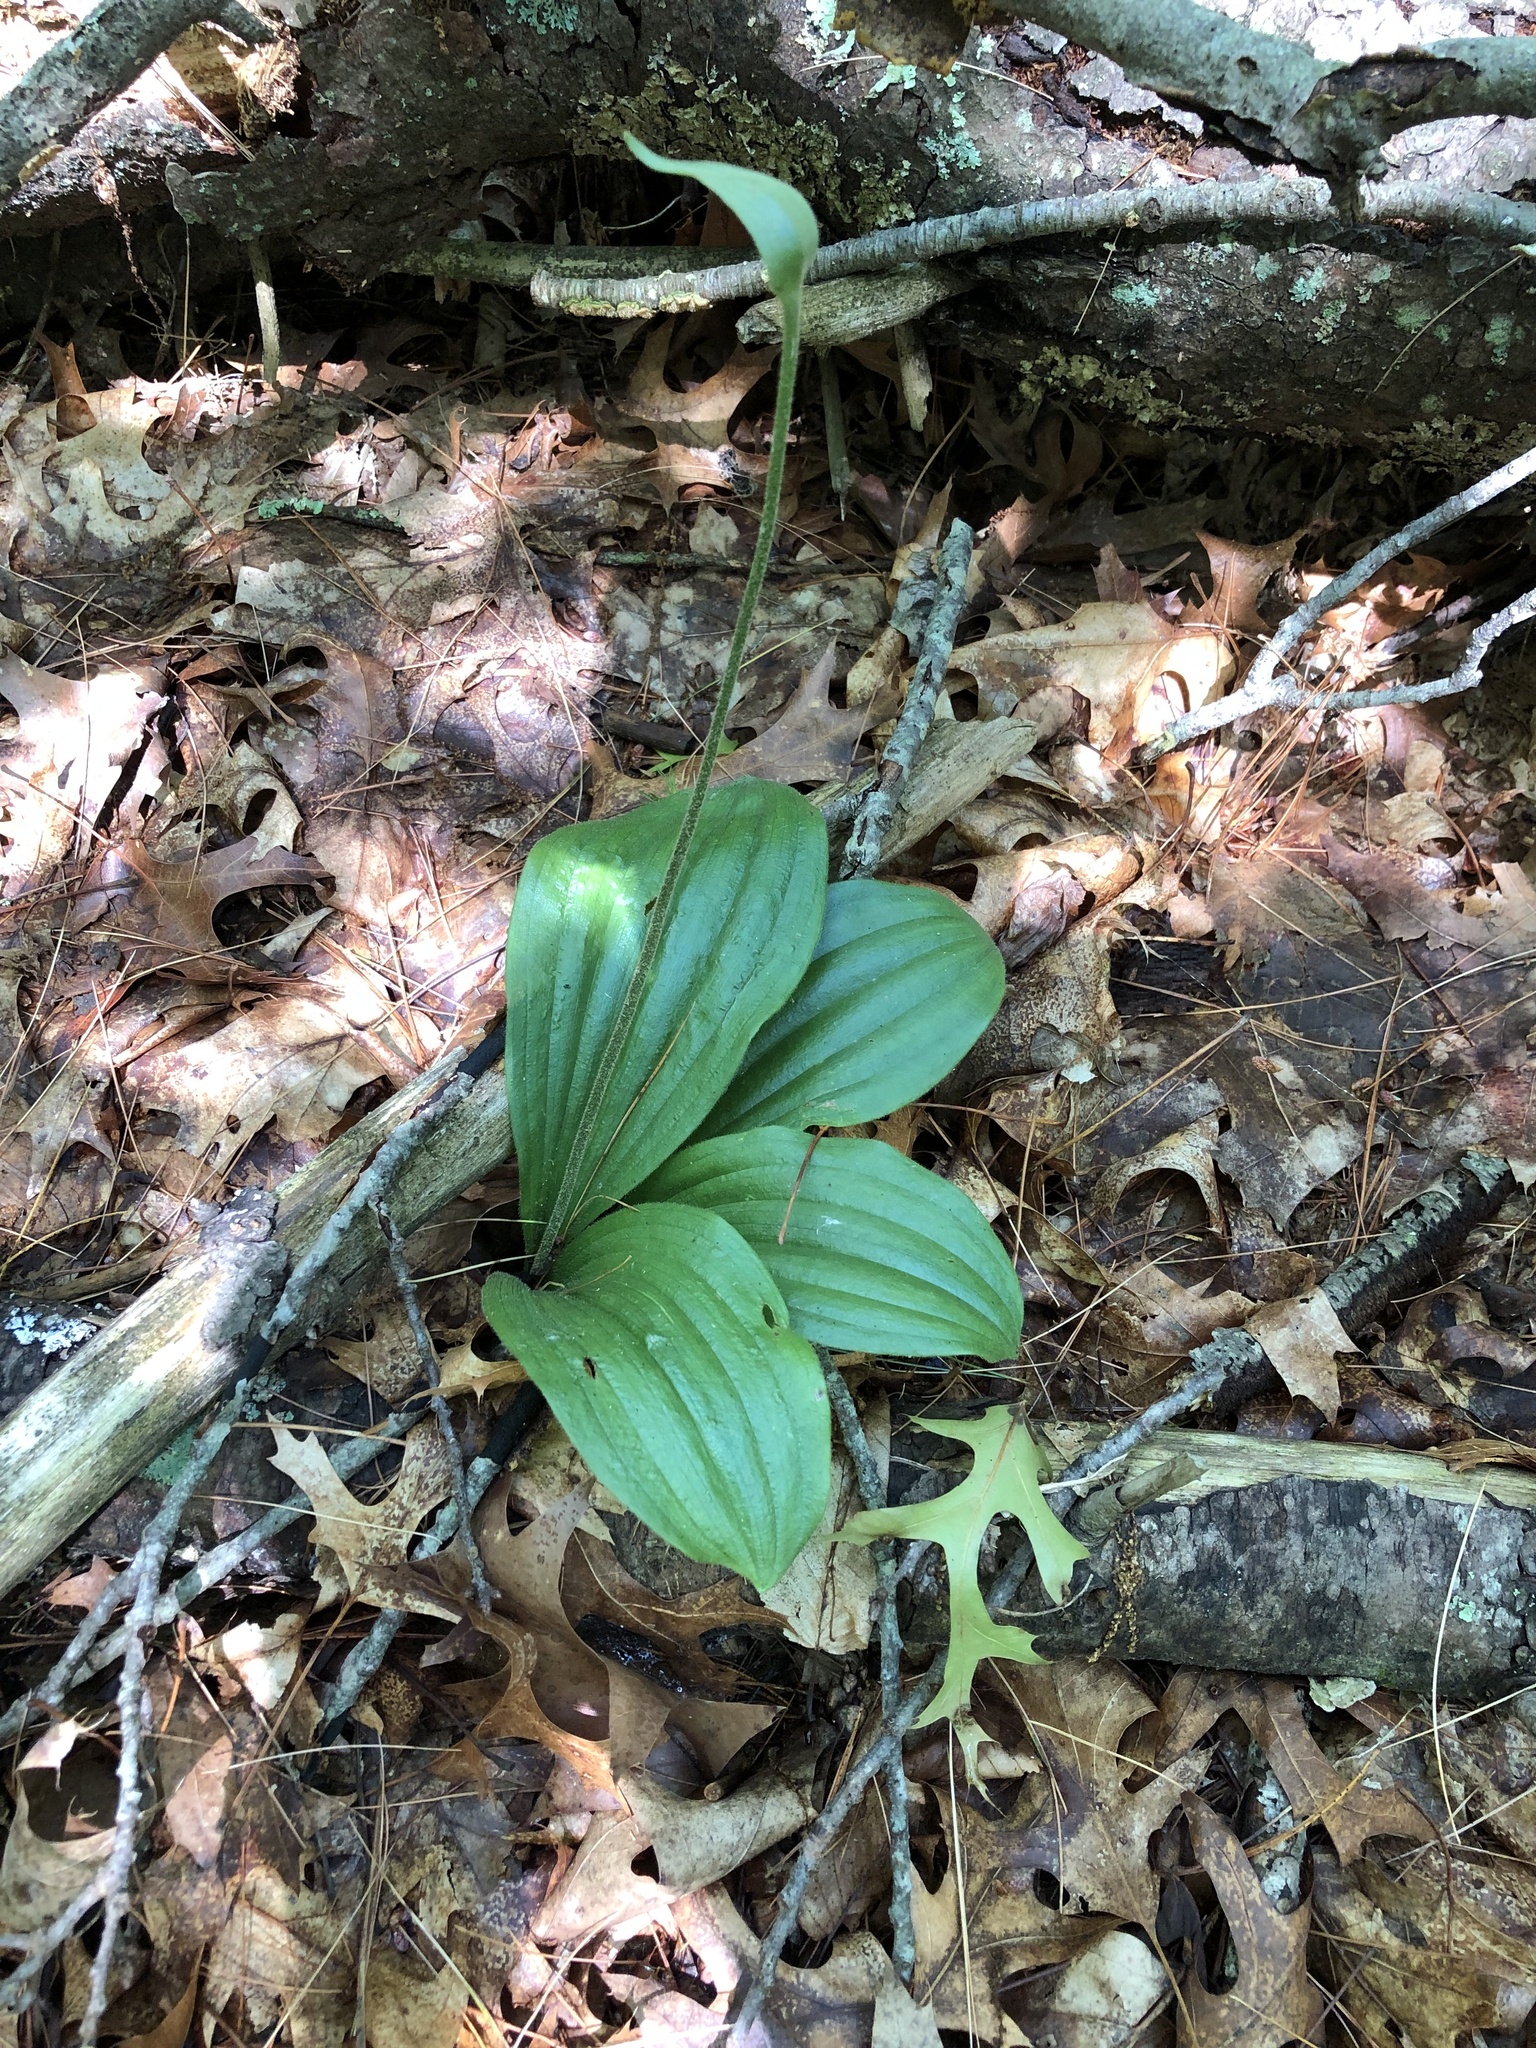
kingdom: Plantae
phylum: Tracheophyta
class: Liliopsida
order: Asparagales
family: Orchidaceae
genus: Cypripedium
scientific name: Cypripedium acaule
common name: Pink lady's-slipper
